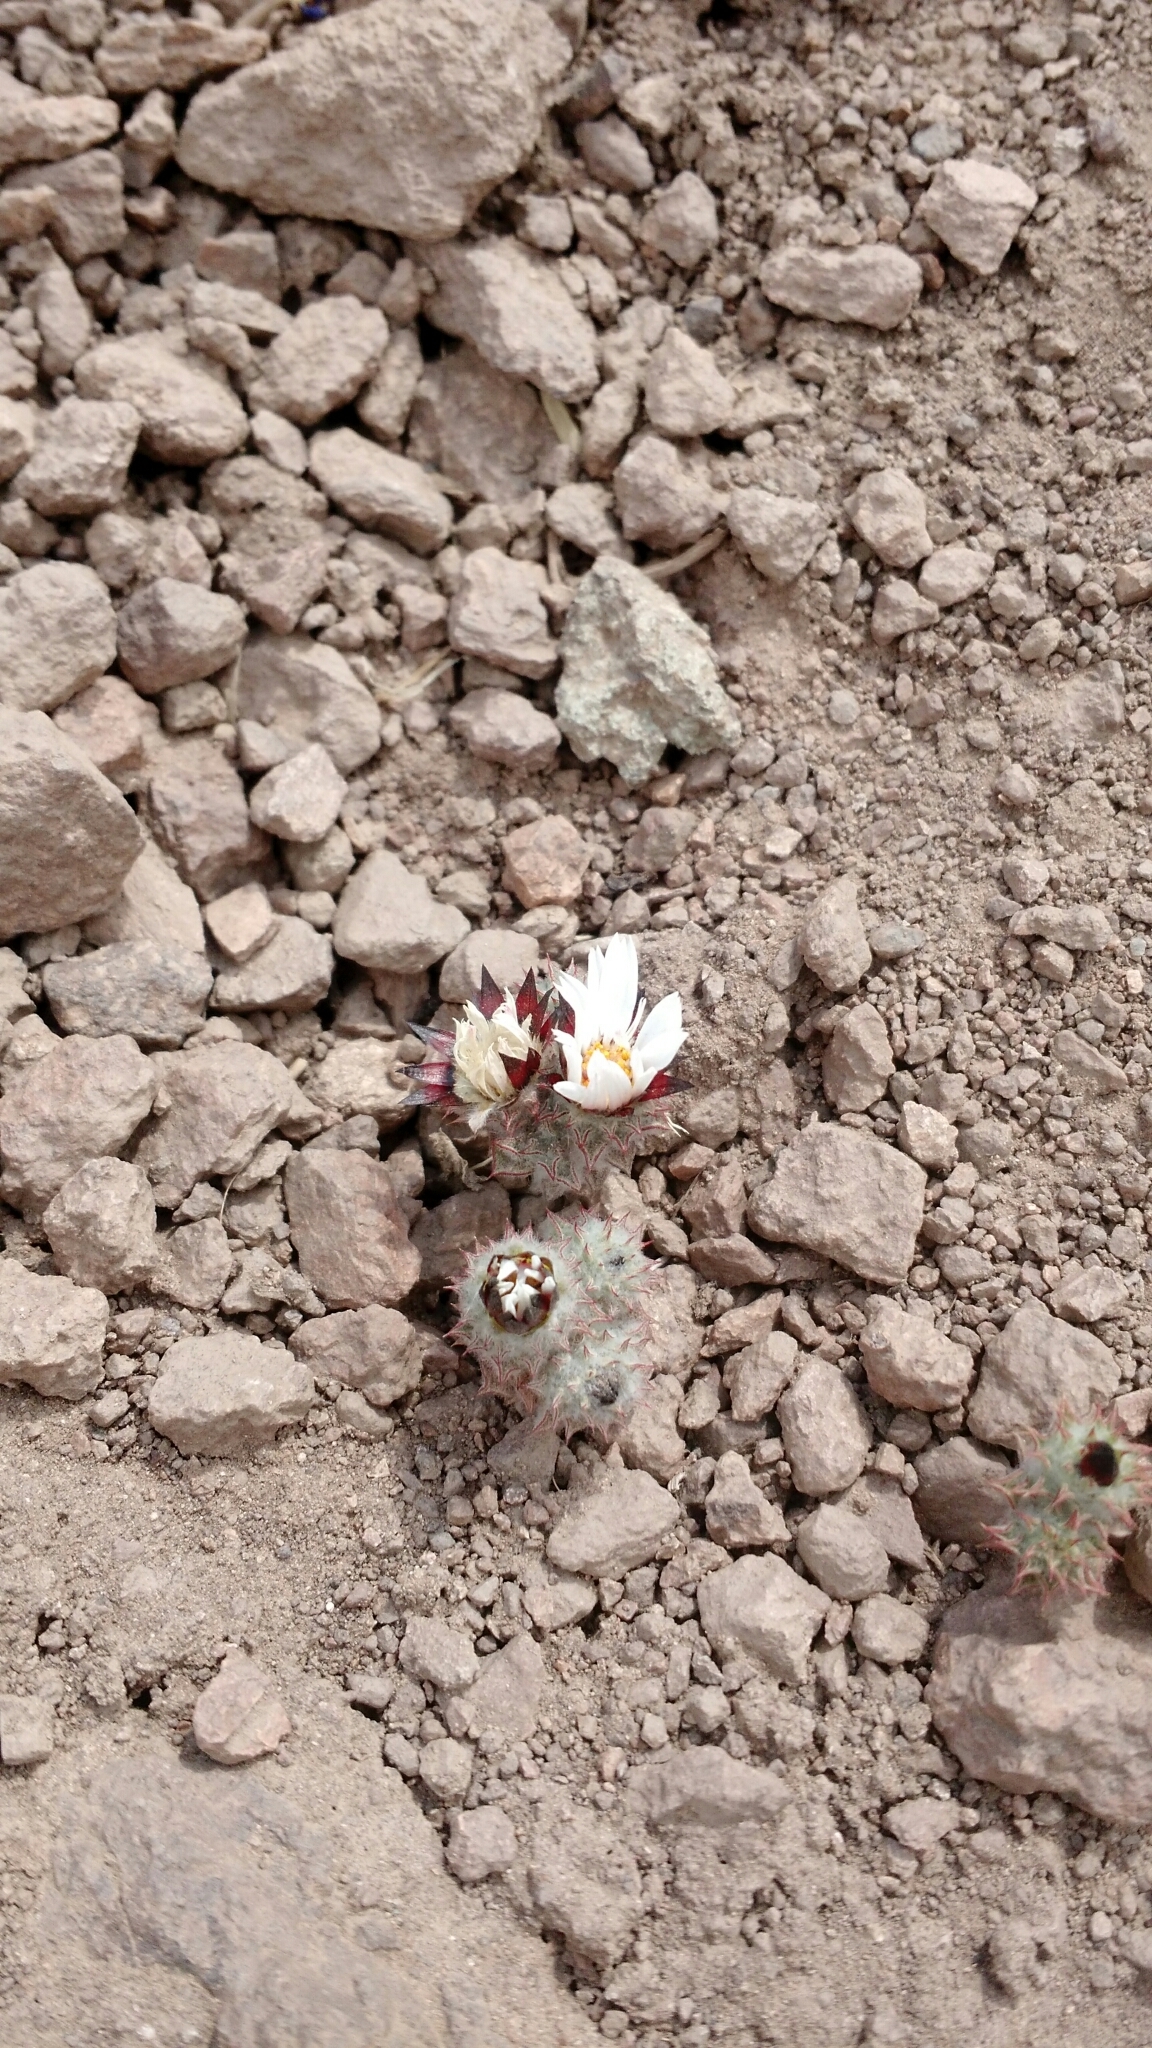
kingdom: Plantae
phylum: Tracheophyta
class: Magnoliopsida
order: Asterales
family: Asteraceae
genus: Oriastrum
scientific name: Oriastrum chilense
